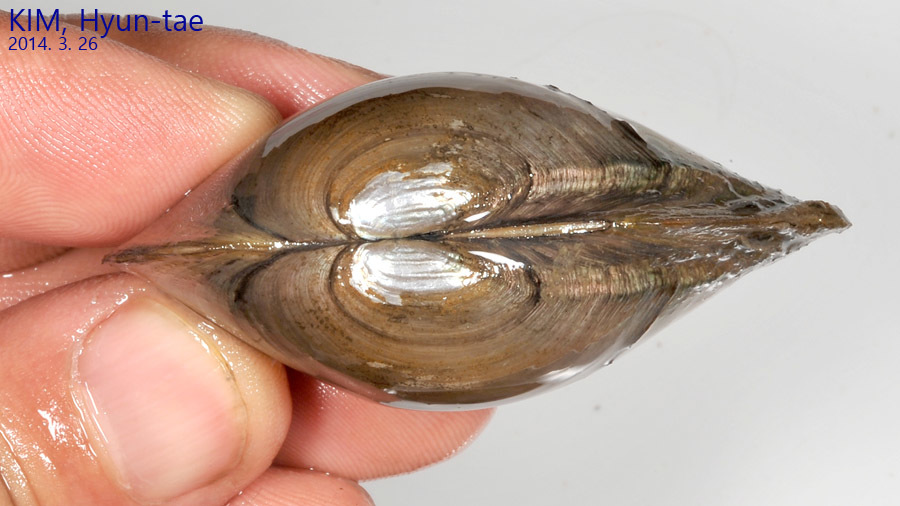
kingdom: Animalia
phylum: Mollusca
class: Bivalvia
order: Unionida
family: Unionidae
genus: Buldowskia
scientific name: Buldowskia shadini
